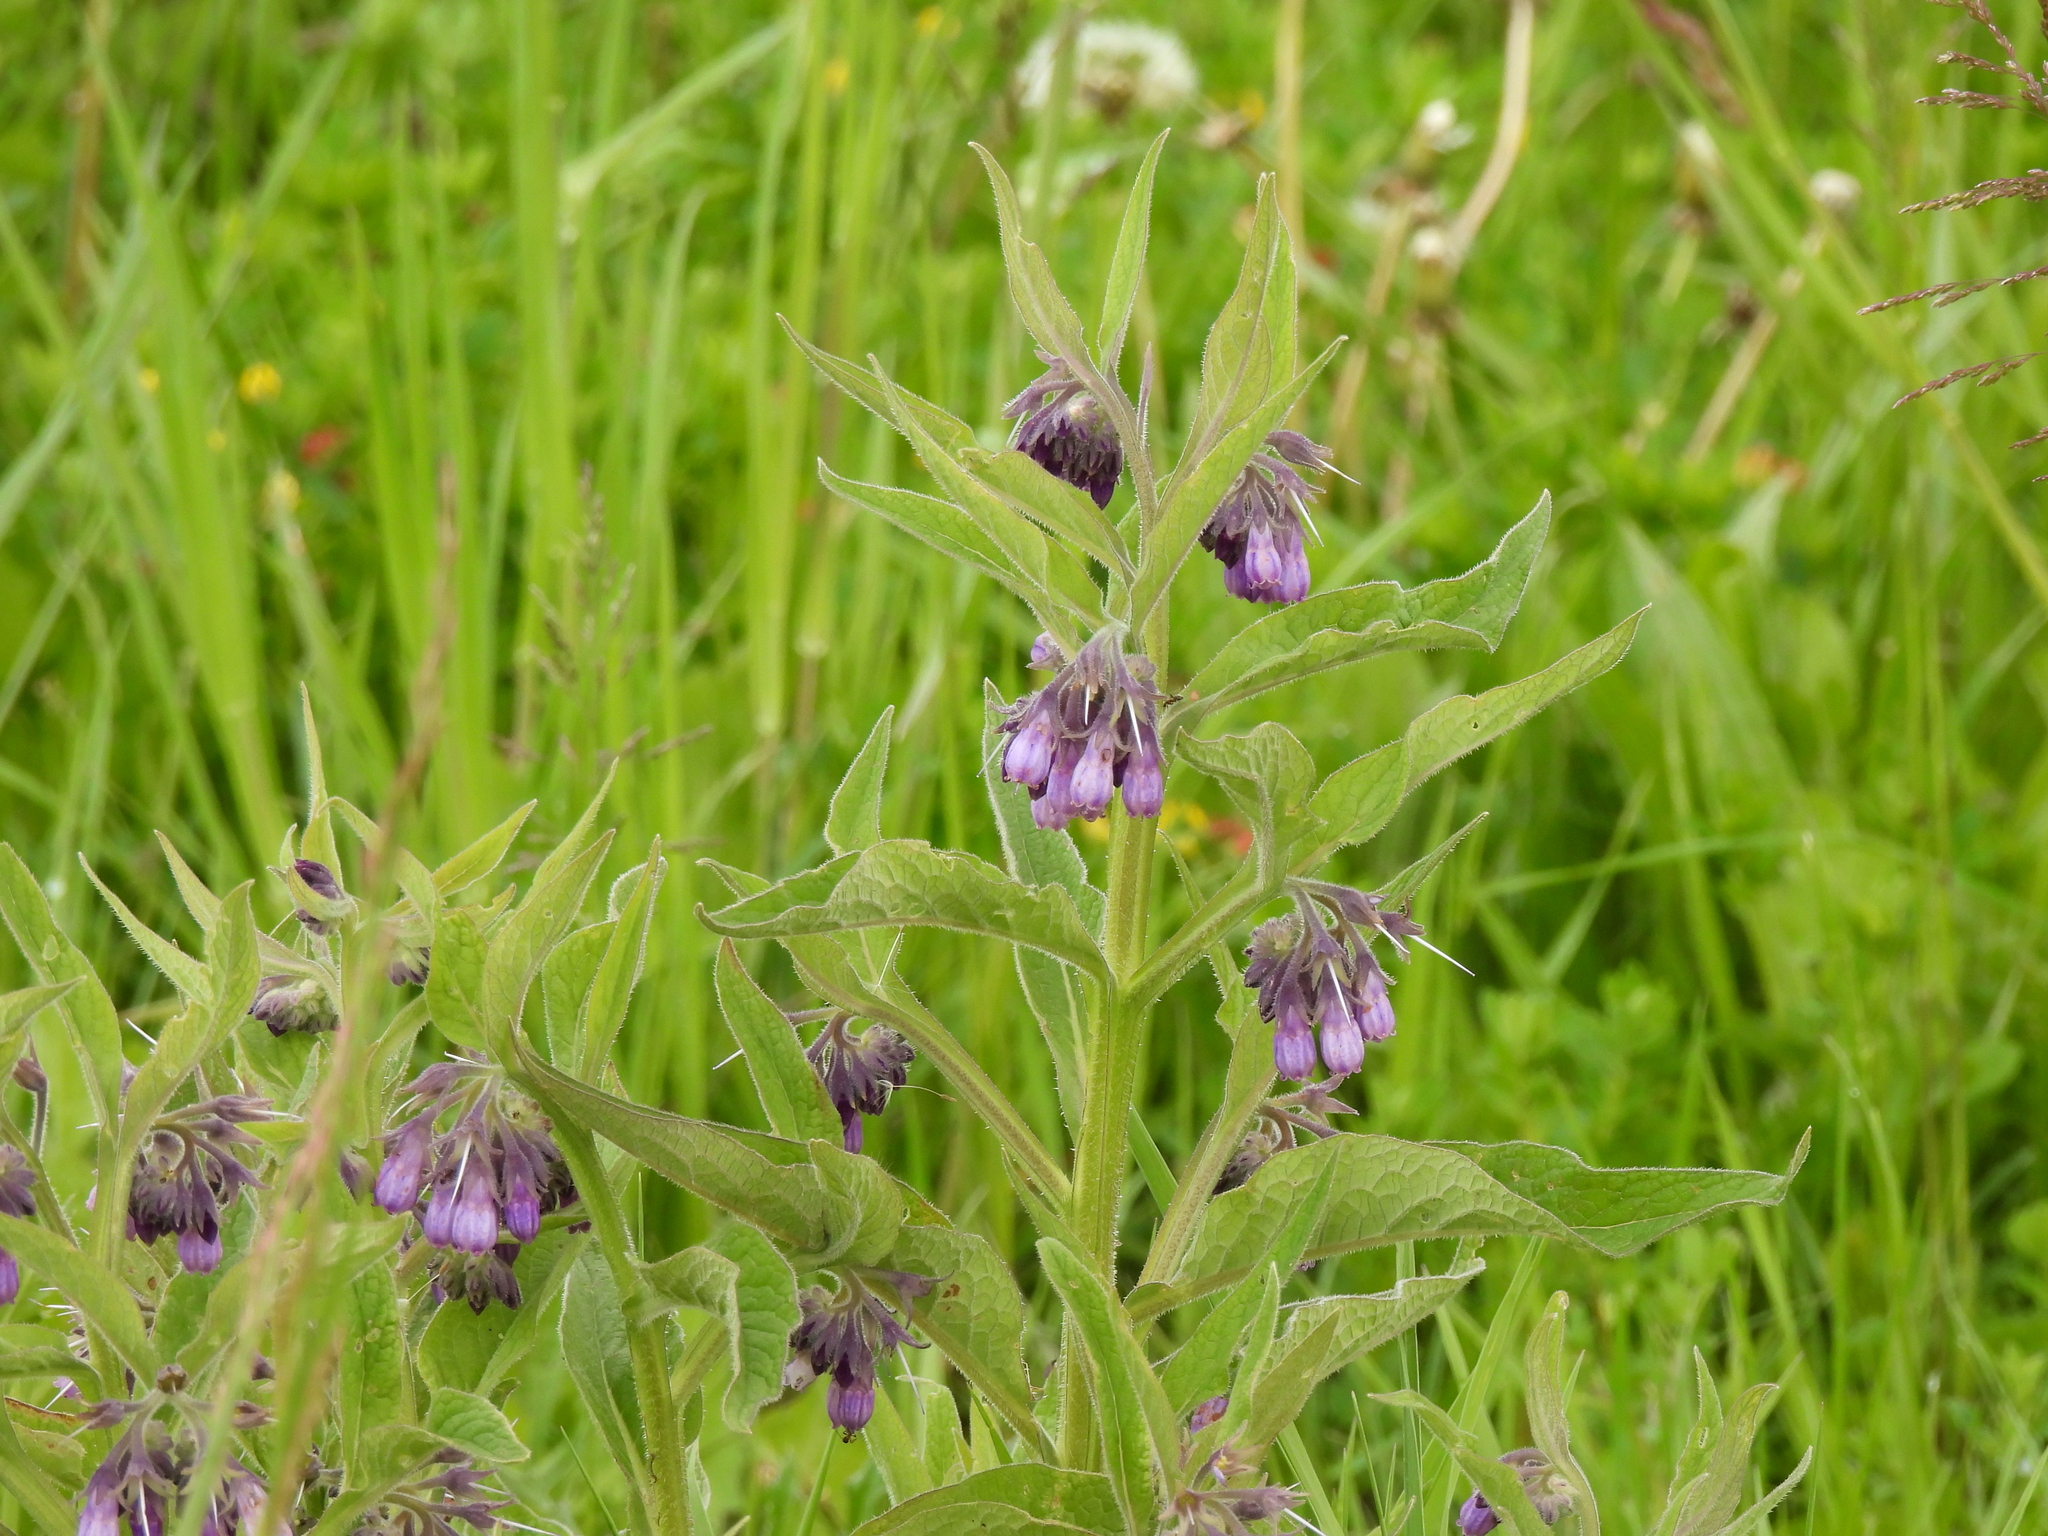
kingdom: Plantae
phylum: Tracheophyta
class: Magnoliopsida
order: Boraginales
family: Boraginaceae
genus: Symphytum
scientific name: Symphytum officinale
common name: Common comfrey
